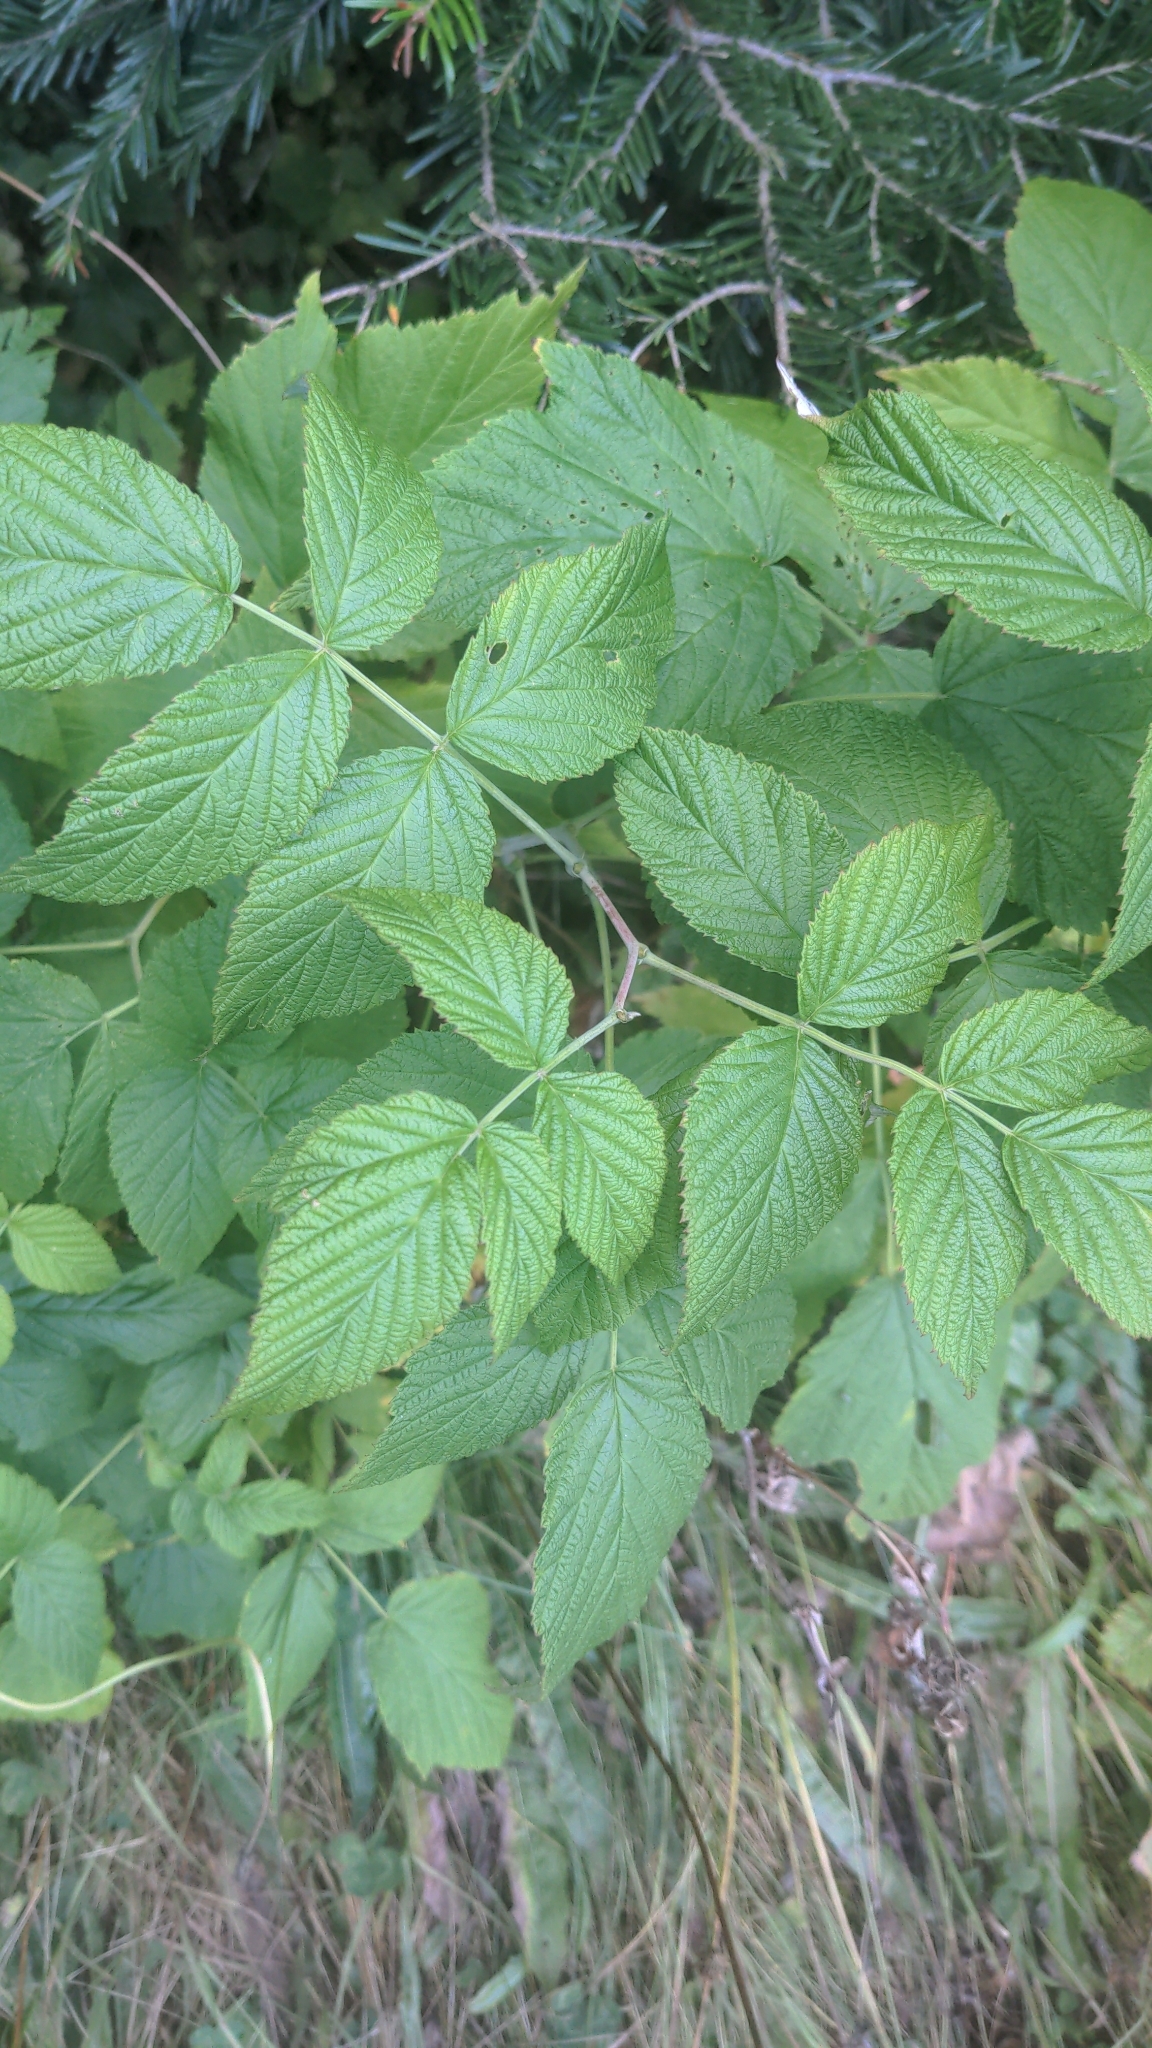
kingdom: Plantae
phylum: Tracheophyta
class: Magnoliopsida
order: Rosales
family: Rosaceae
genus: Rubus
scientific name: Rubus idaeus
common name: Raspberry
